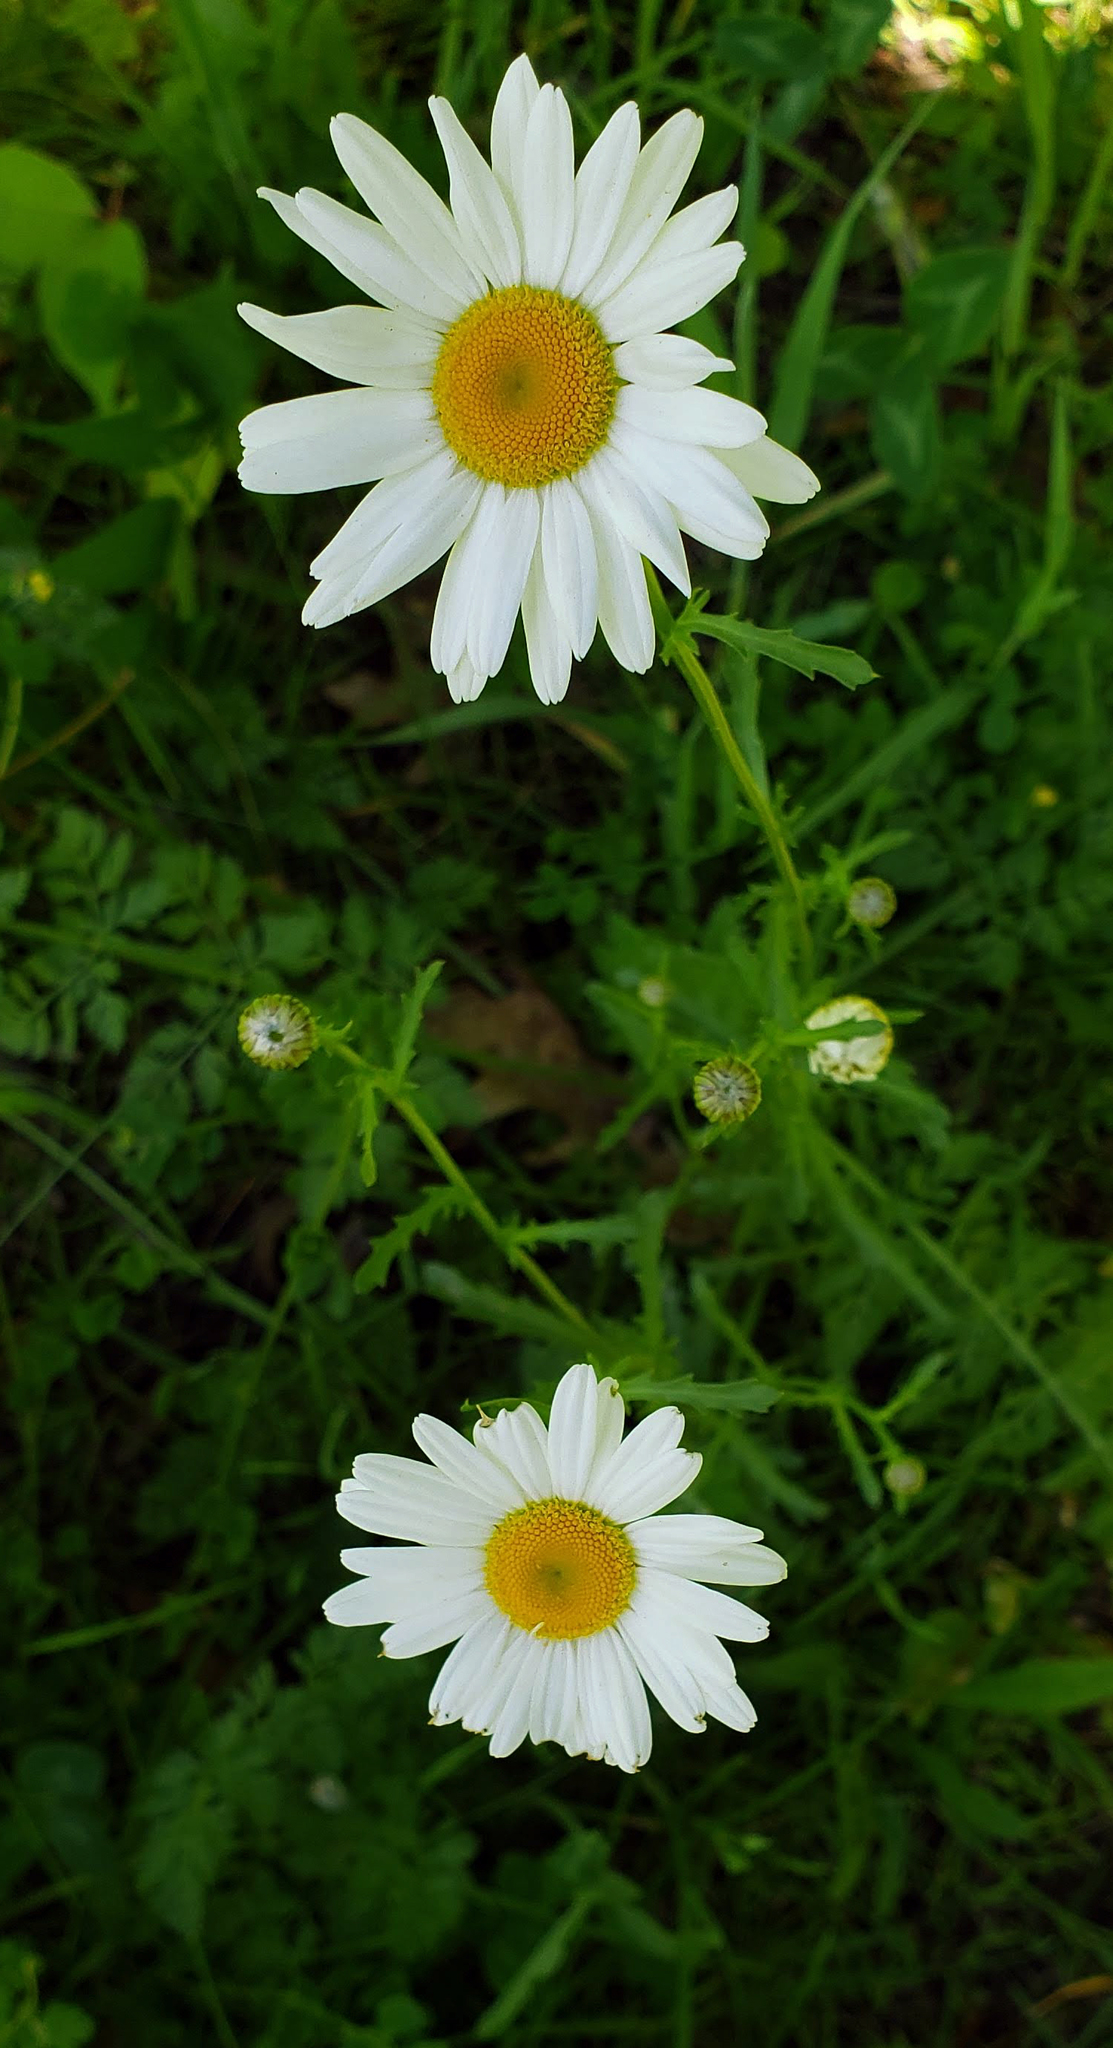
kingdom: Plantae
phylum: Tracheophyta
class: Magnoliopsida
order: Asterales
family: Asteraceae
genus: Leucanthemum
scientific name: Leucanthemum vulgare
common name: Oxeye daisy
